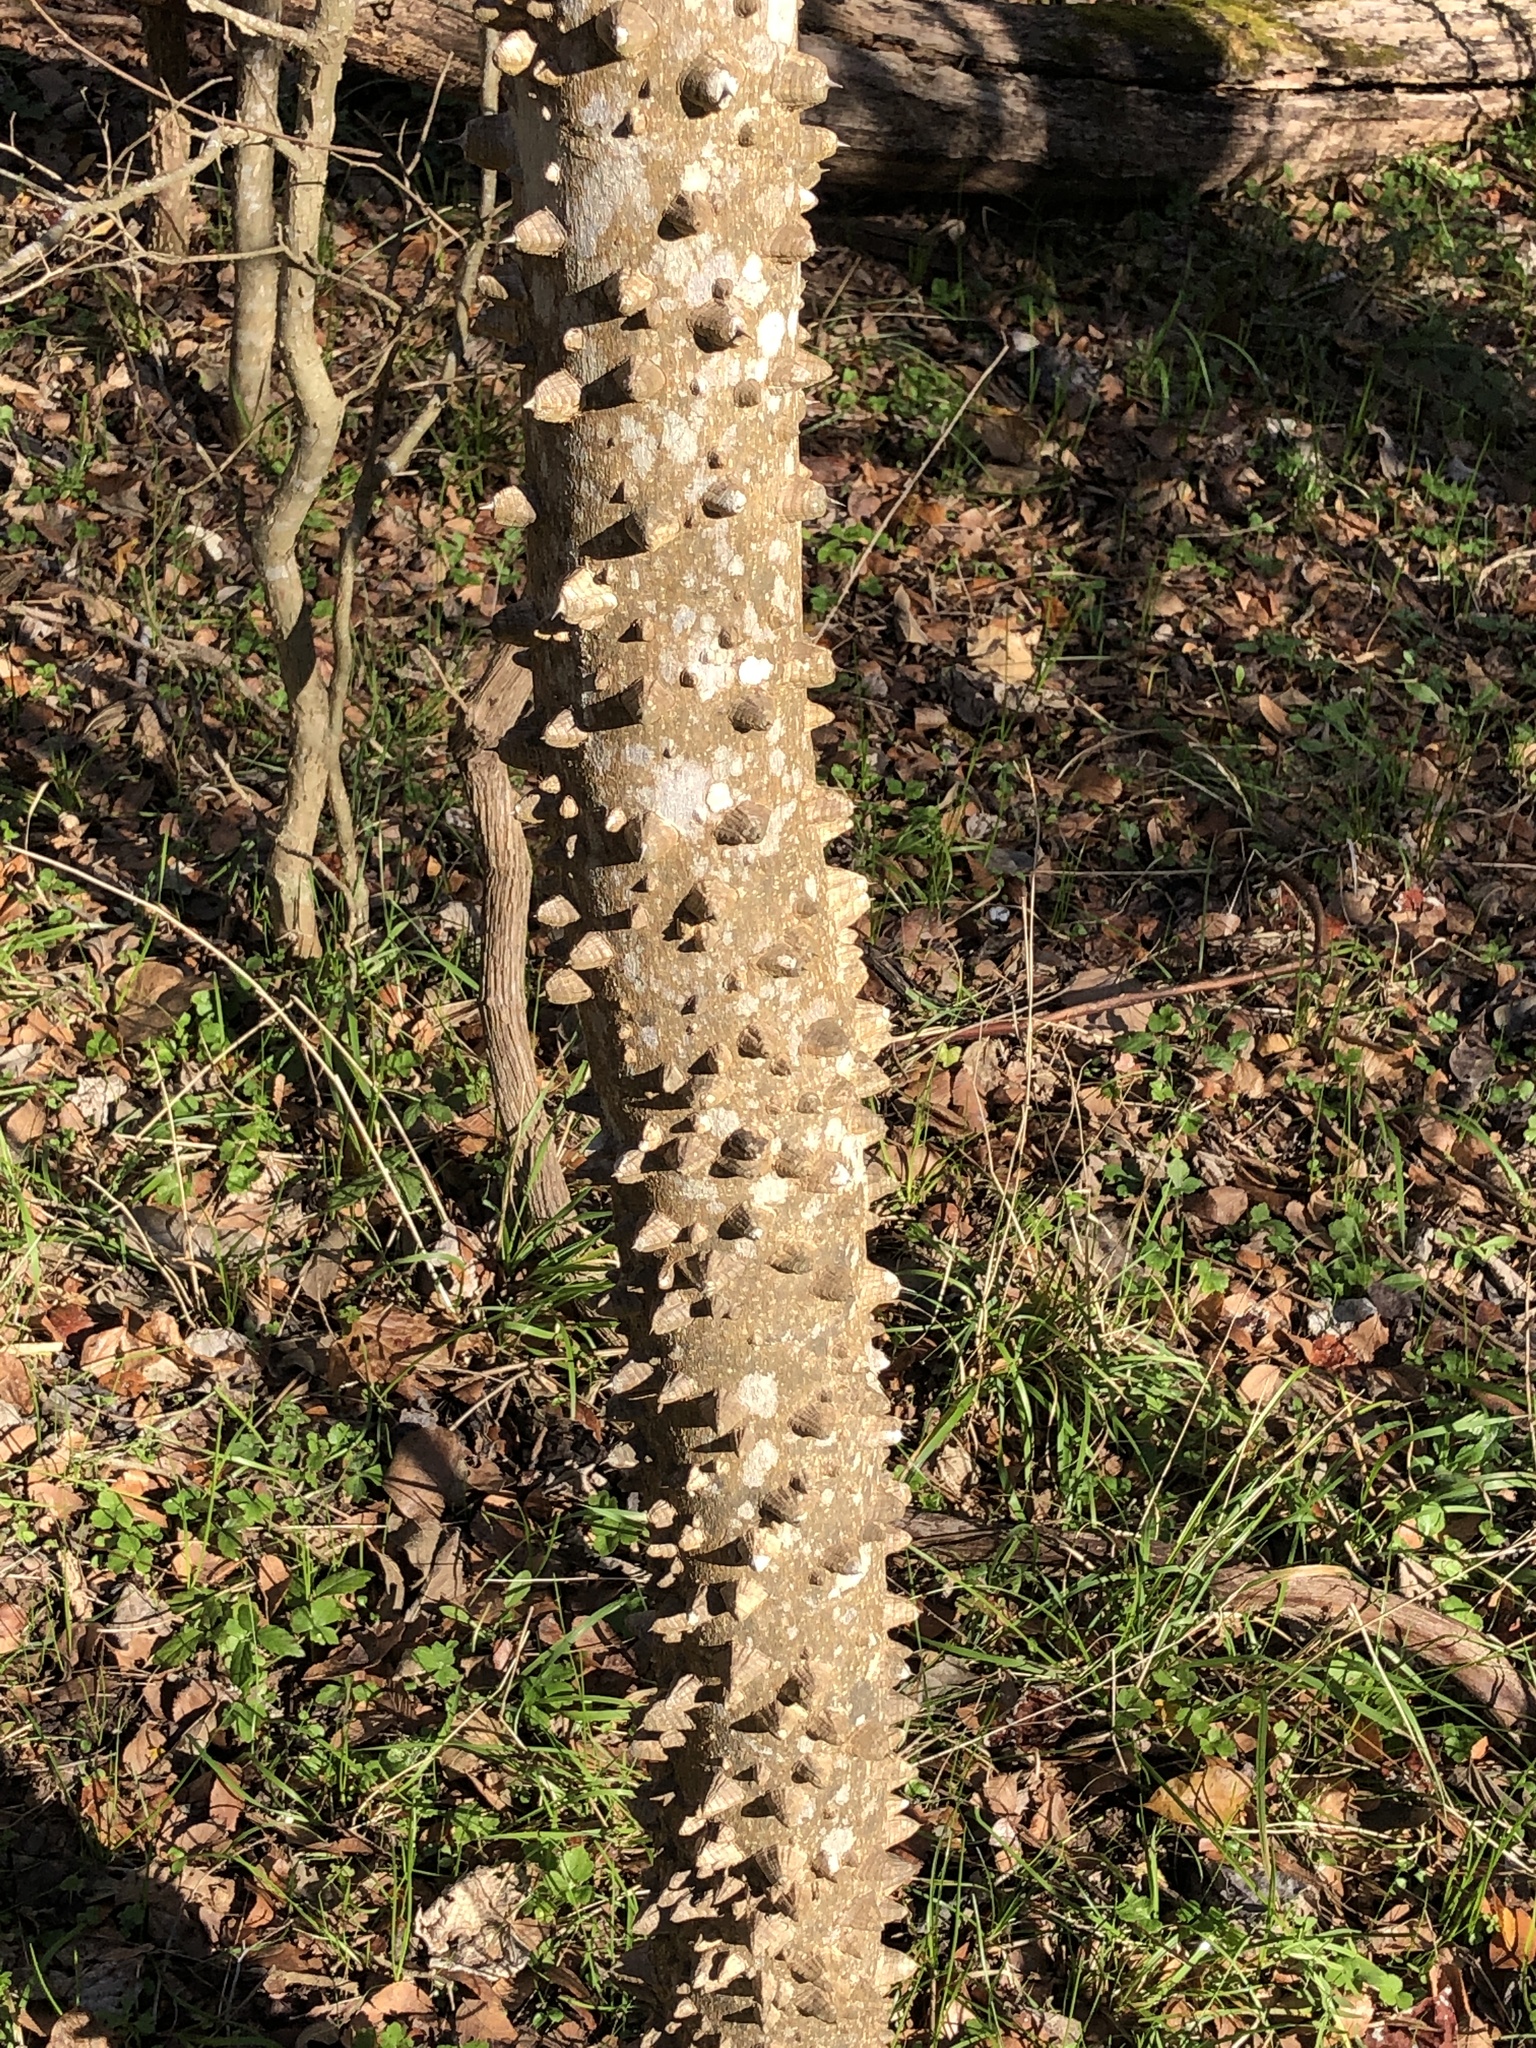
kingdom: Plantae
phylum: Tracheophyta
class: Magnoliopsida
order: Sapindales
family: Rutaceae
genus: Zanthoxylum
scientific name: Zanthoxylum clava-herculis
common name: Hercules'-club
